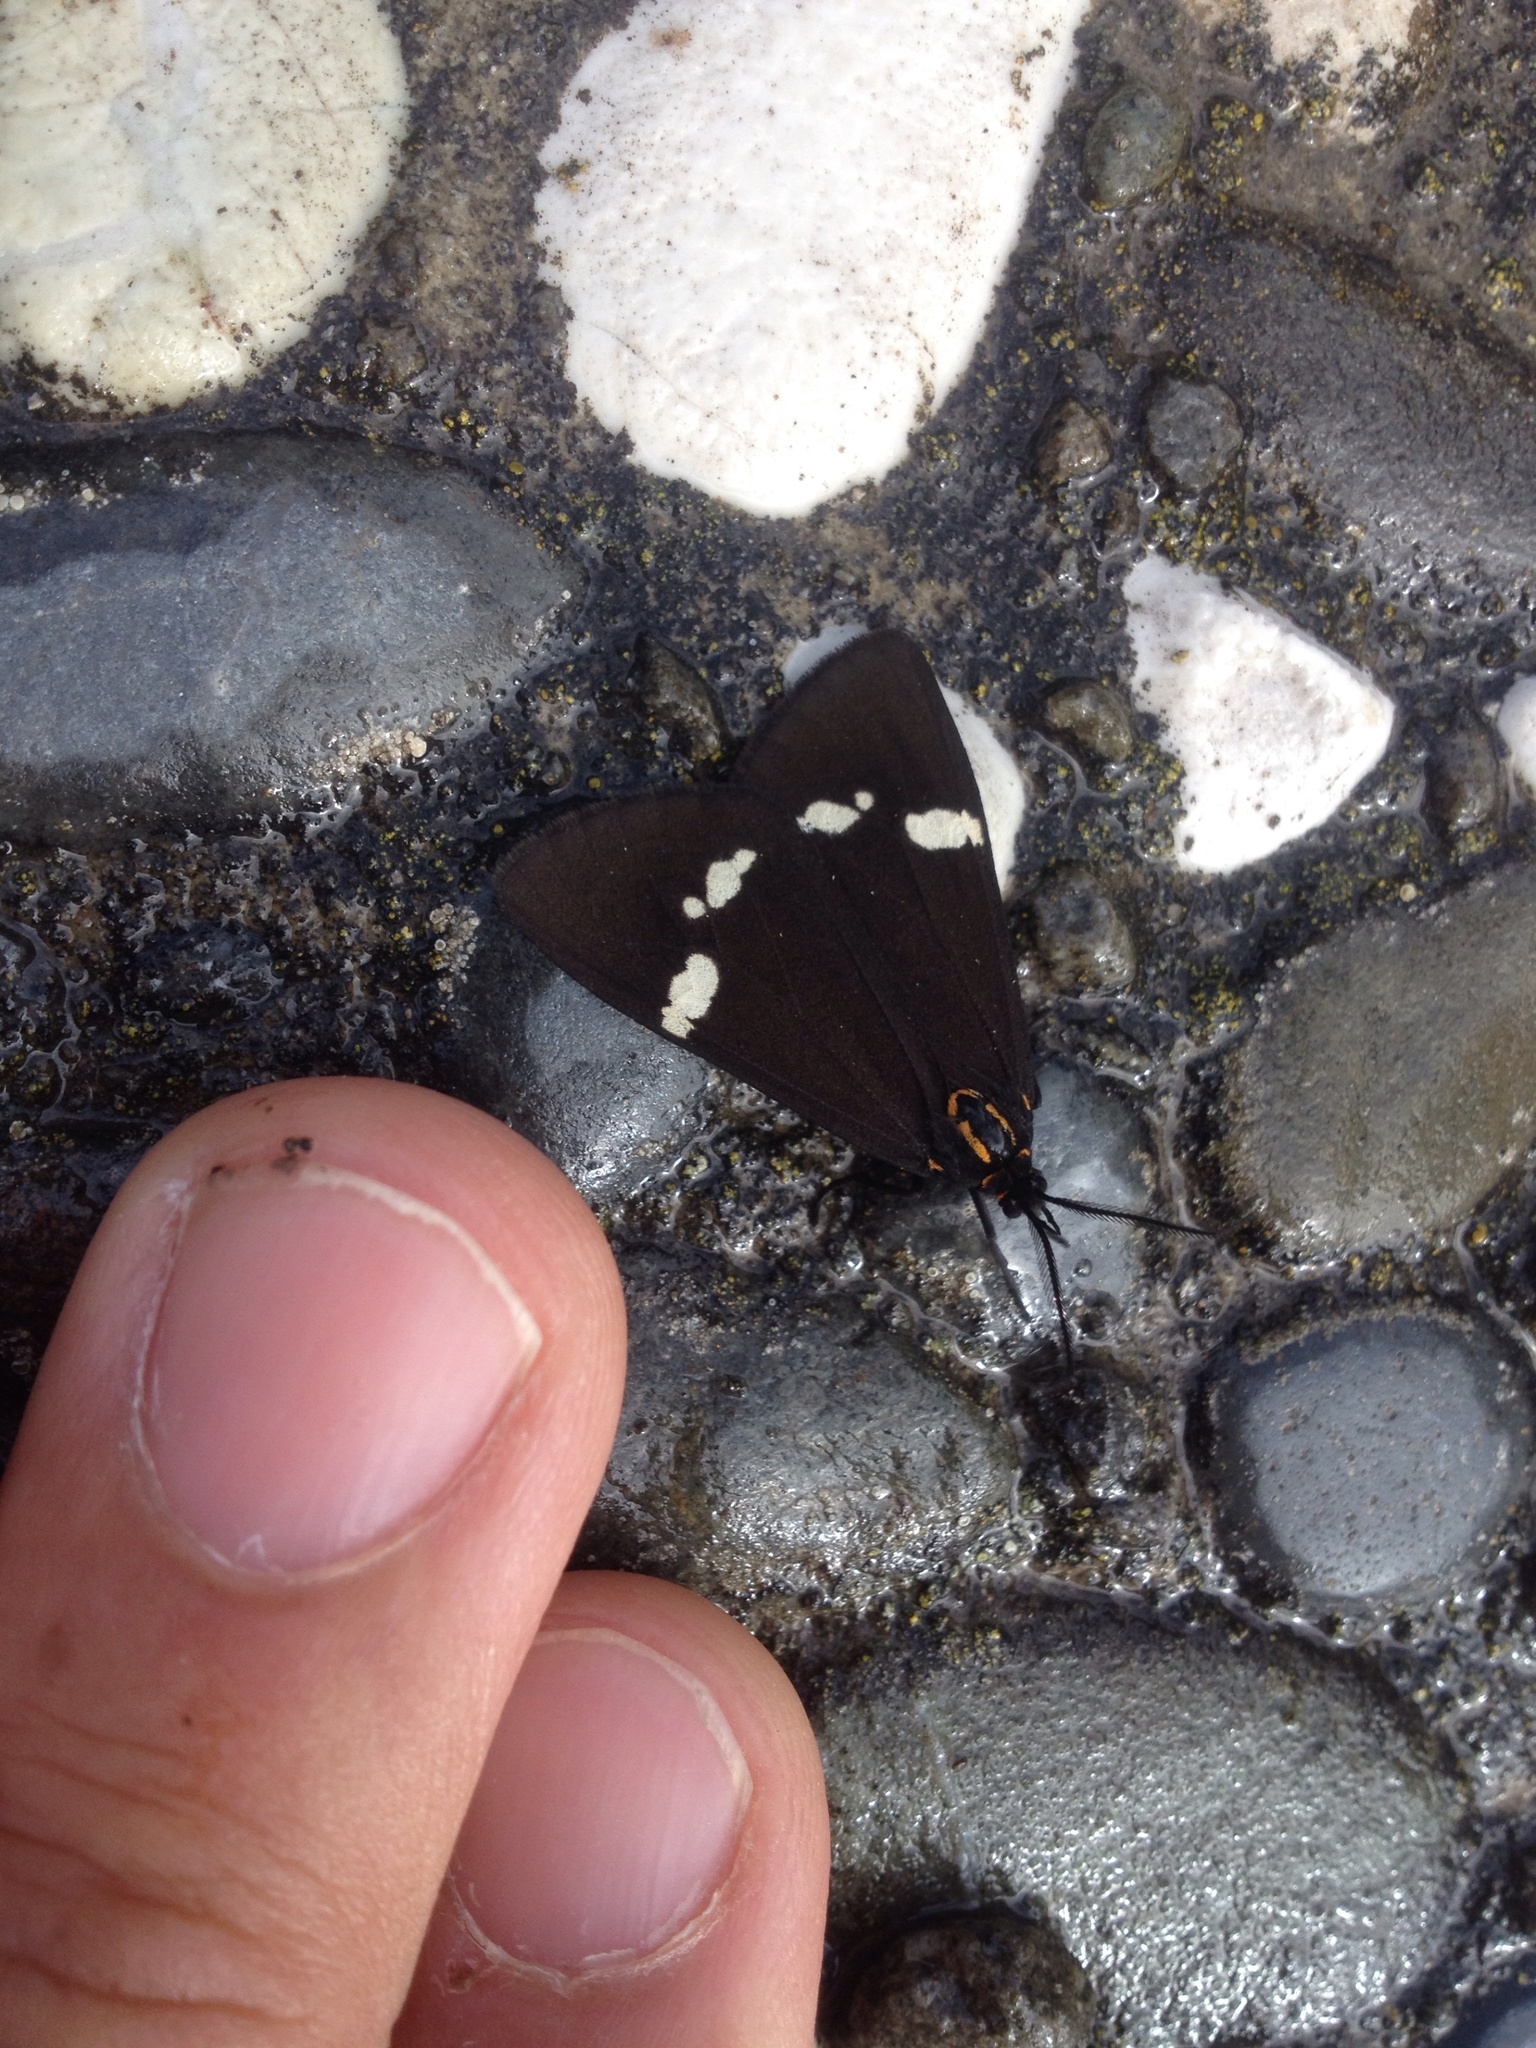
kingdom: Animalia
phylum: Arthropoda
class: Insecta
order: Lepidoptera
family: Erebidae
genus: Nyctemera
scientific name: Nyctemera annulatum
